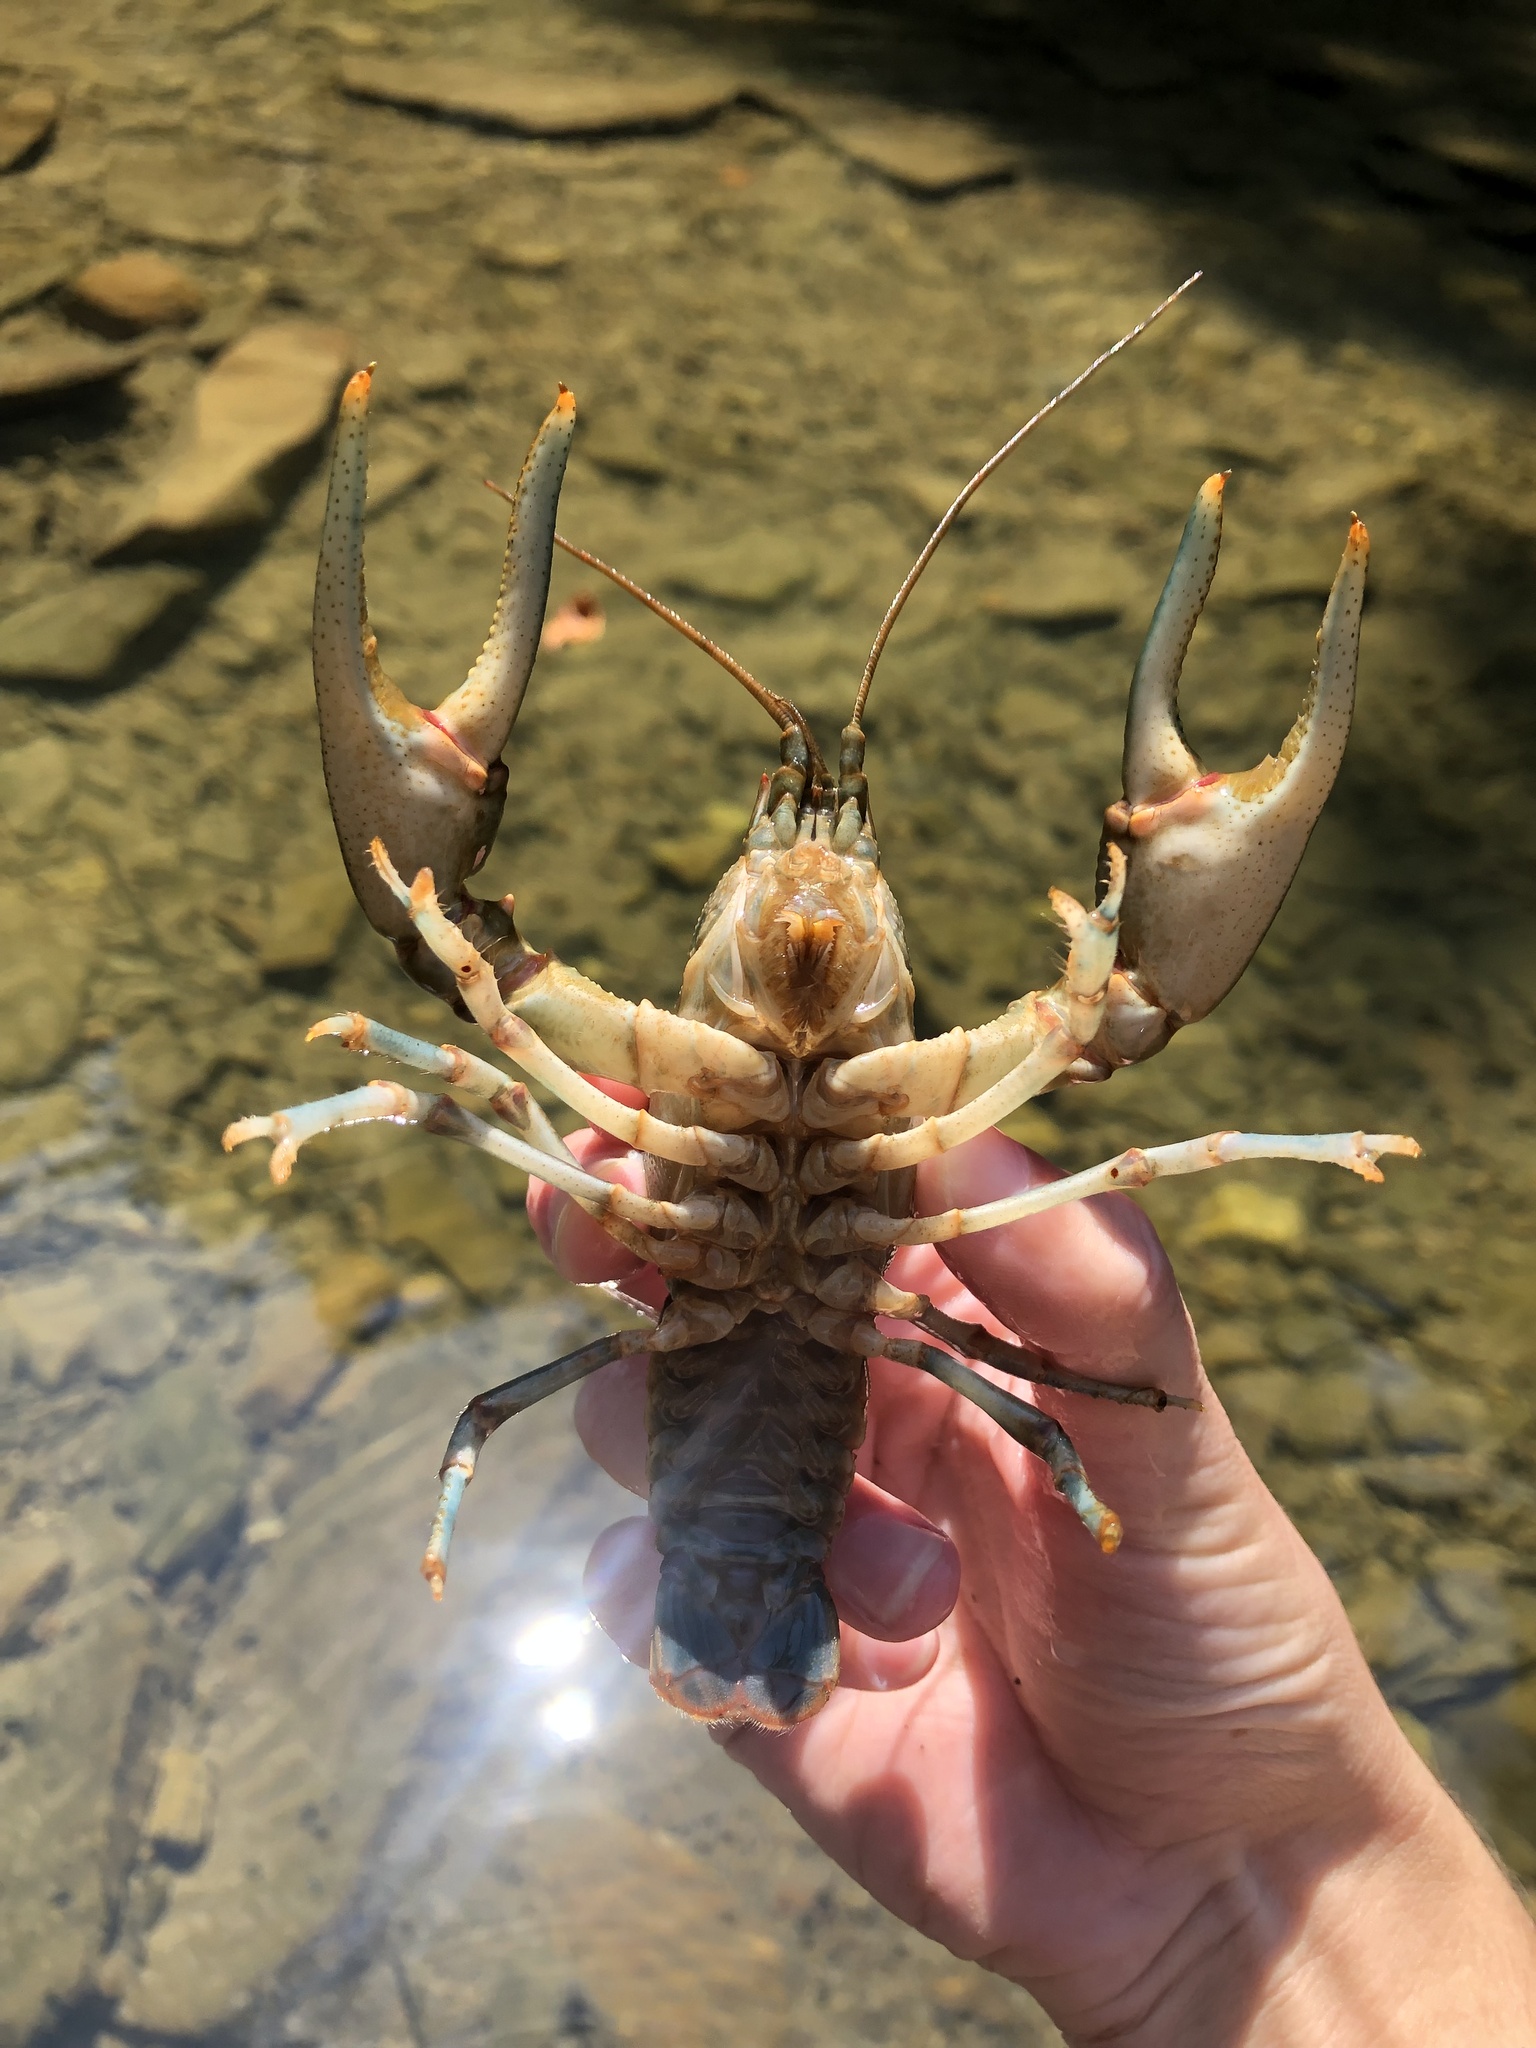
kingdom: Animalia
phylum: Arthropoda
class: Malacostraca
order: Decapoda
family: Cambaridae
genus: Cambarus
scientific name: Cambarus chasmodactylus
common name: New river crayfish
